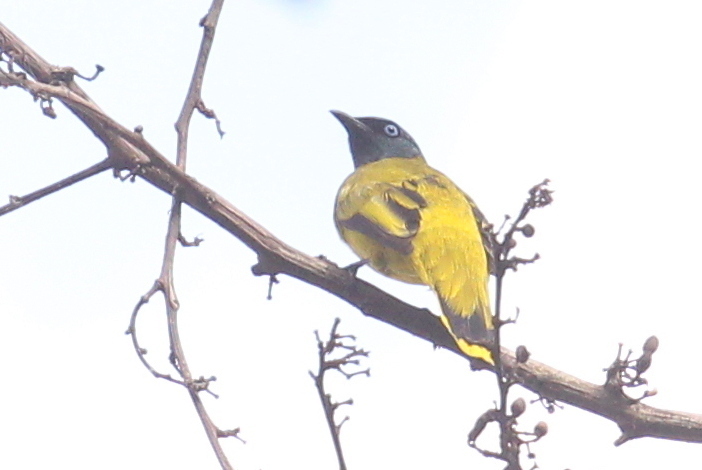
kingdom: Animalia
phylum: Chordata
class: Aves
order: Passeriformes
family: Pycnonotidae
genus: Microtarsus
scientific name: Microtarsus
